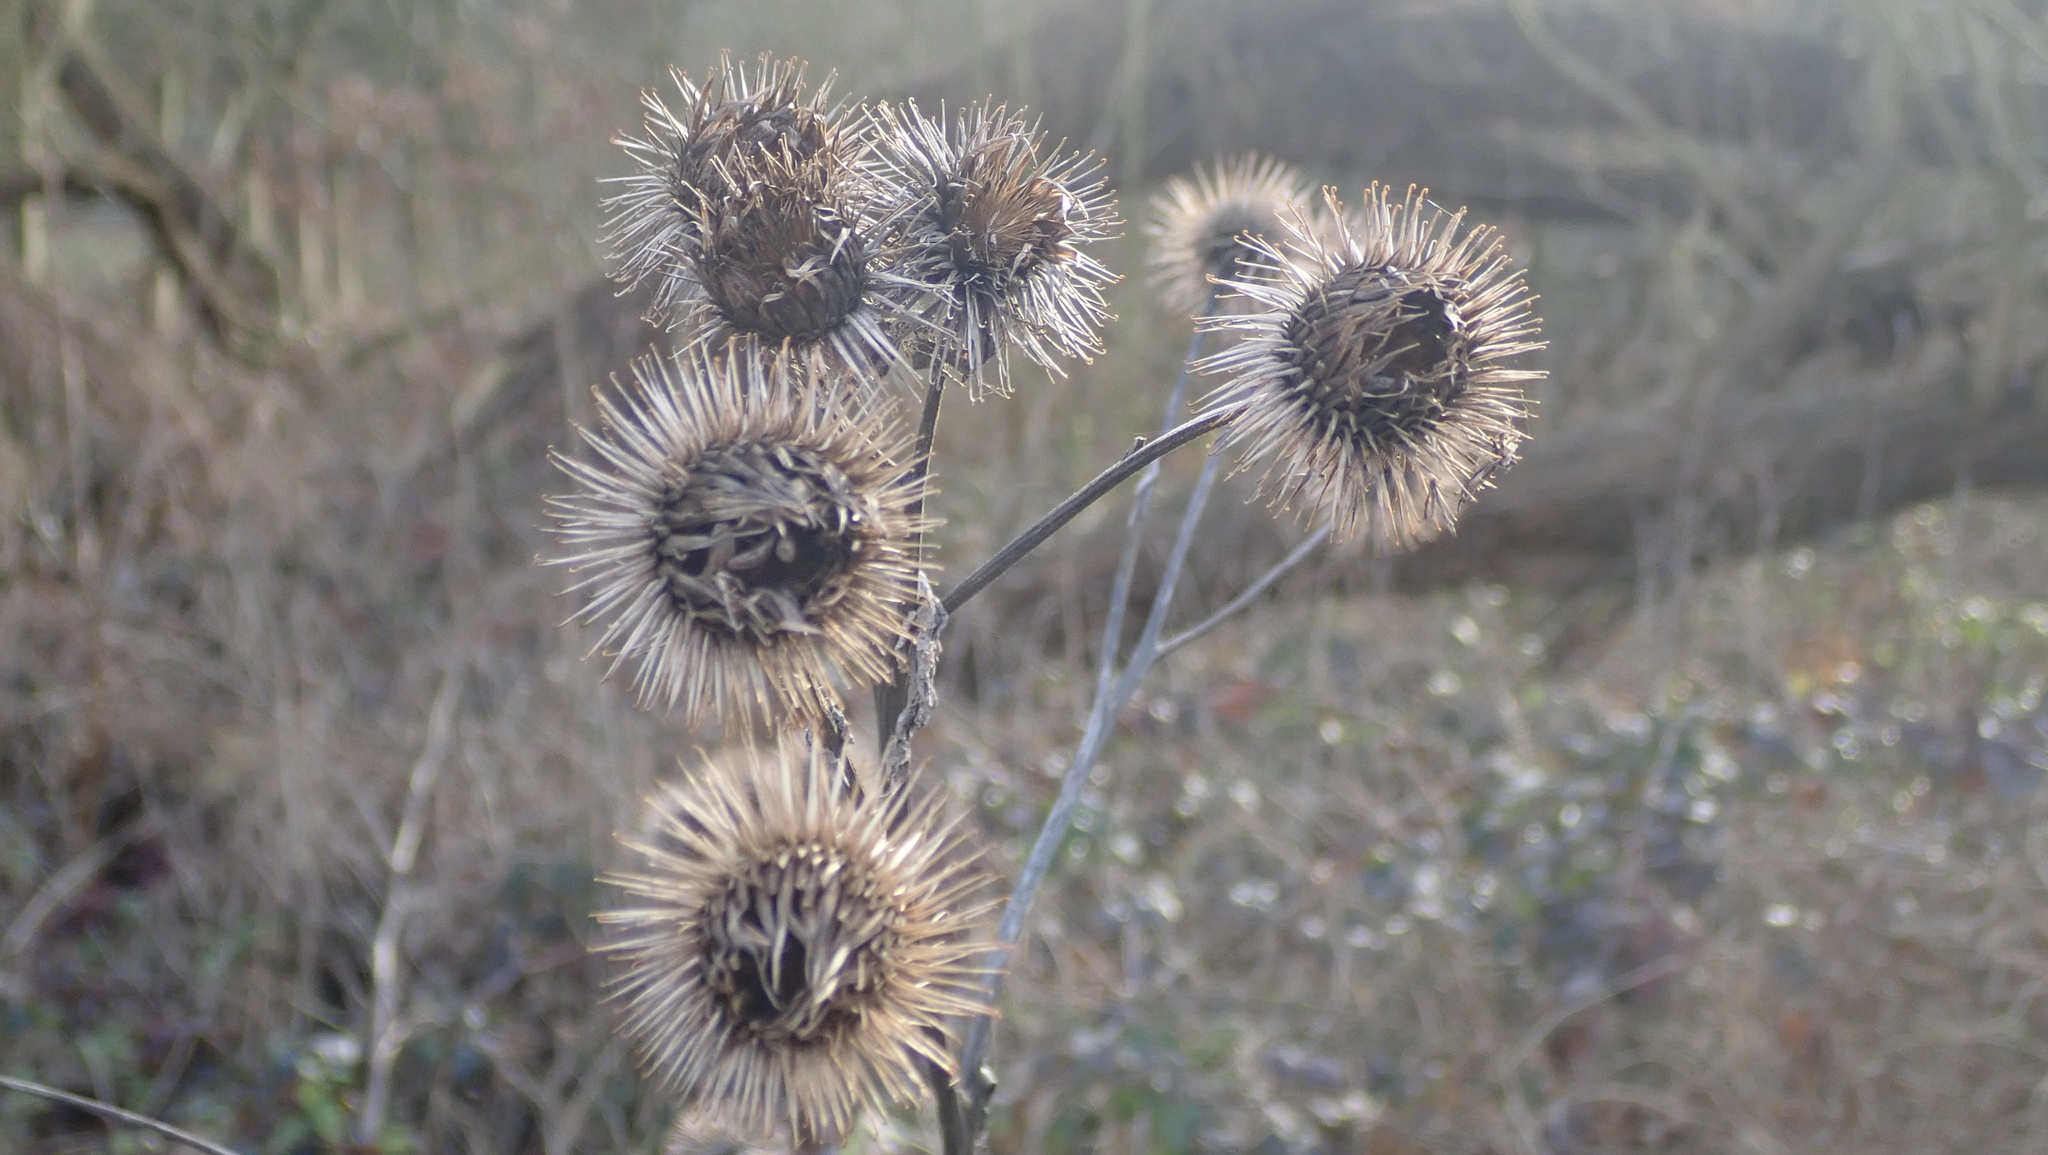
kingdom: Plantae
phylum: Tracheophyta
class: Magnoliopsida
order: Asterales
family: Asteraceae
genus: Arctium
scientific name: Arctium lappa
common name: Greater burdock
